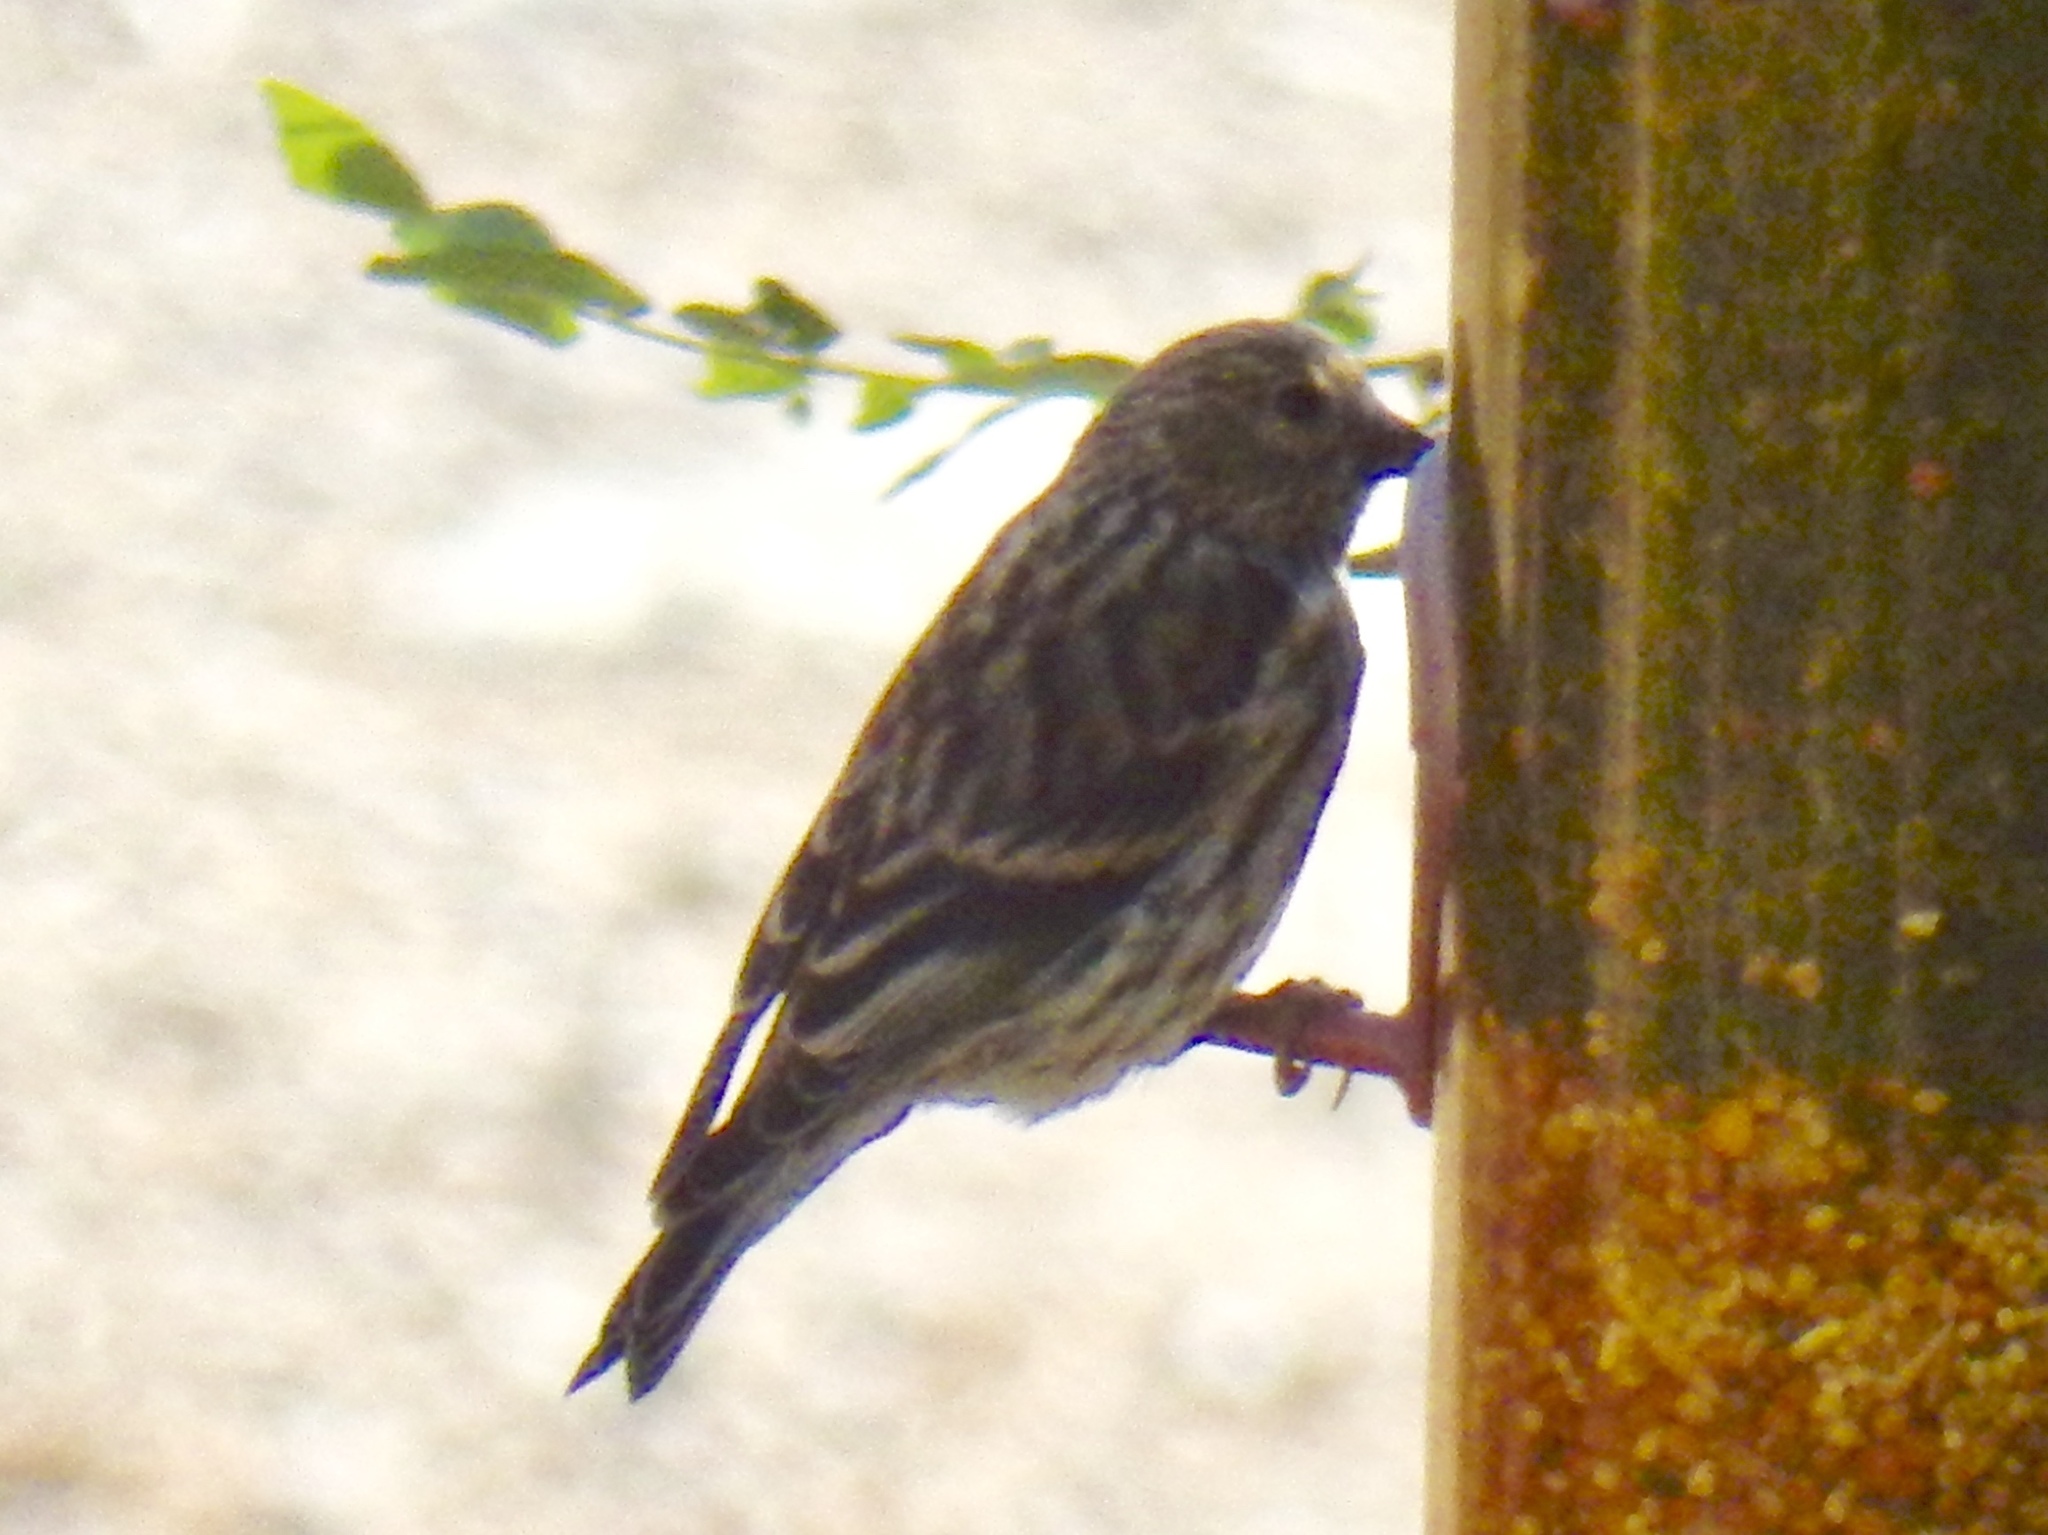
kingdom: Animalia
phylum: Chordata
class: Aves
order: Passeriformes
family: Fringillidae
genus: Spinus
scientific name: Spinus pinus
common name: Pine siskin
